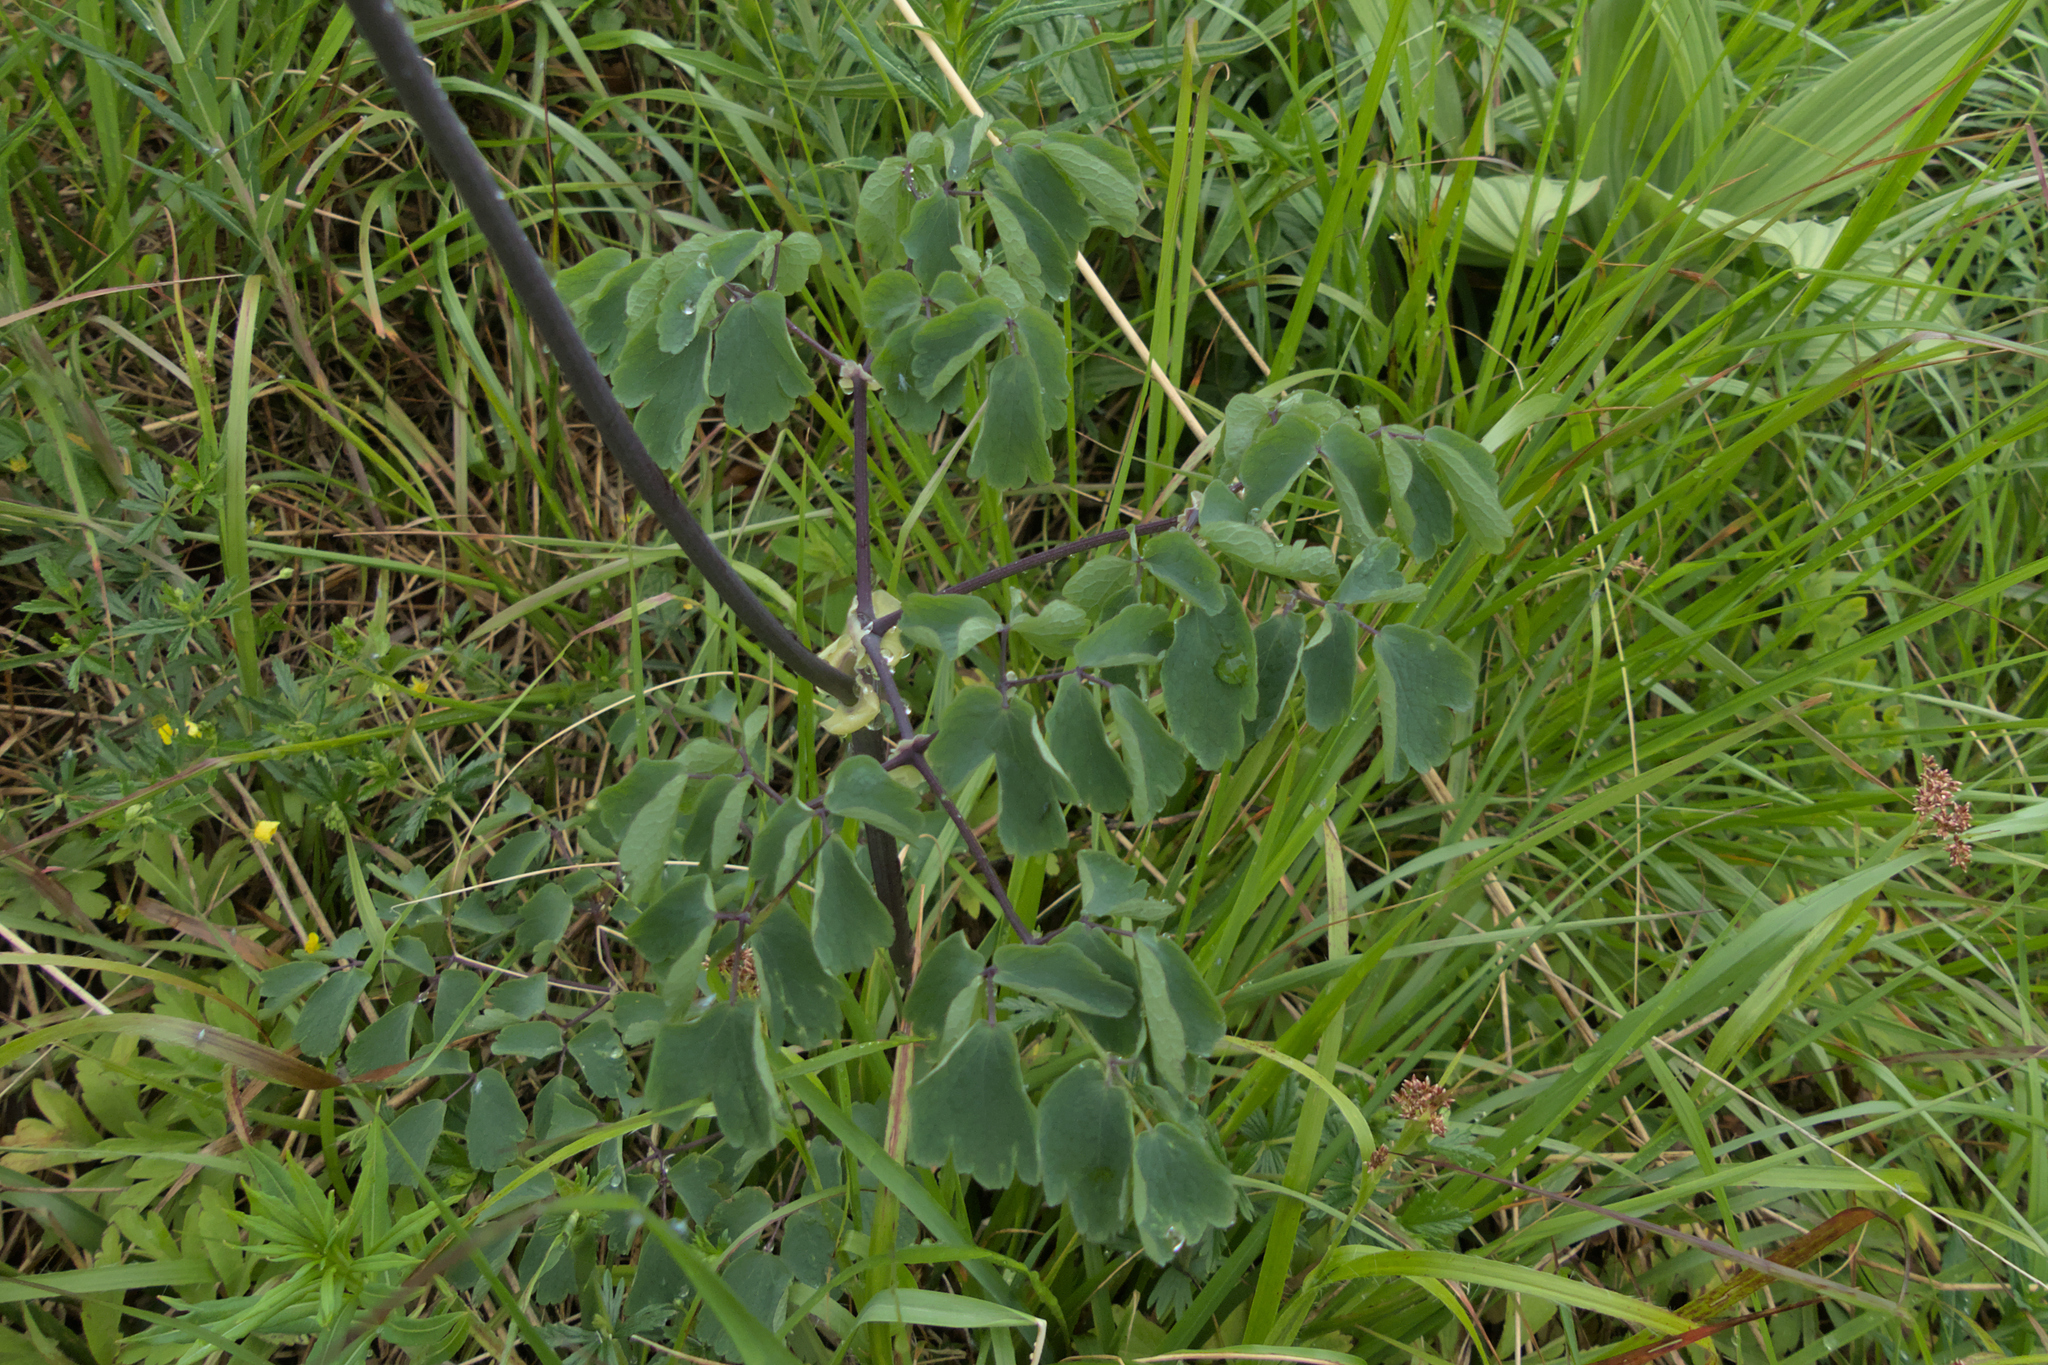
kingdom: Plantae
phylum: Tracheophyta
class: Magnoliopsida
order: Ranunculales
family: Ranunculaceae
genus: Thalictrum
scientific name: Thalictrum aquilegiifolium
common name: French meadow-rue
